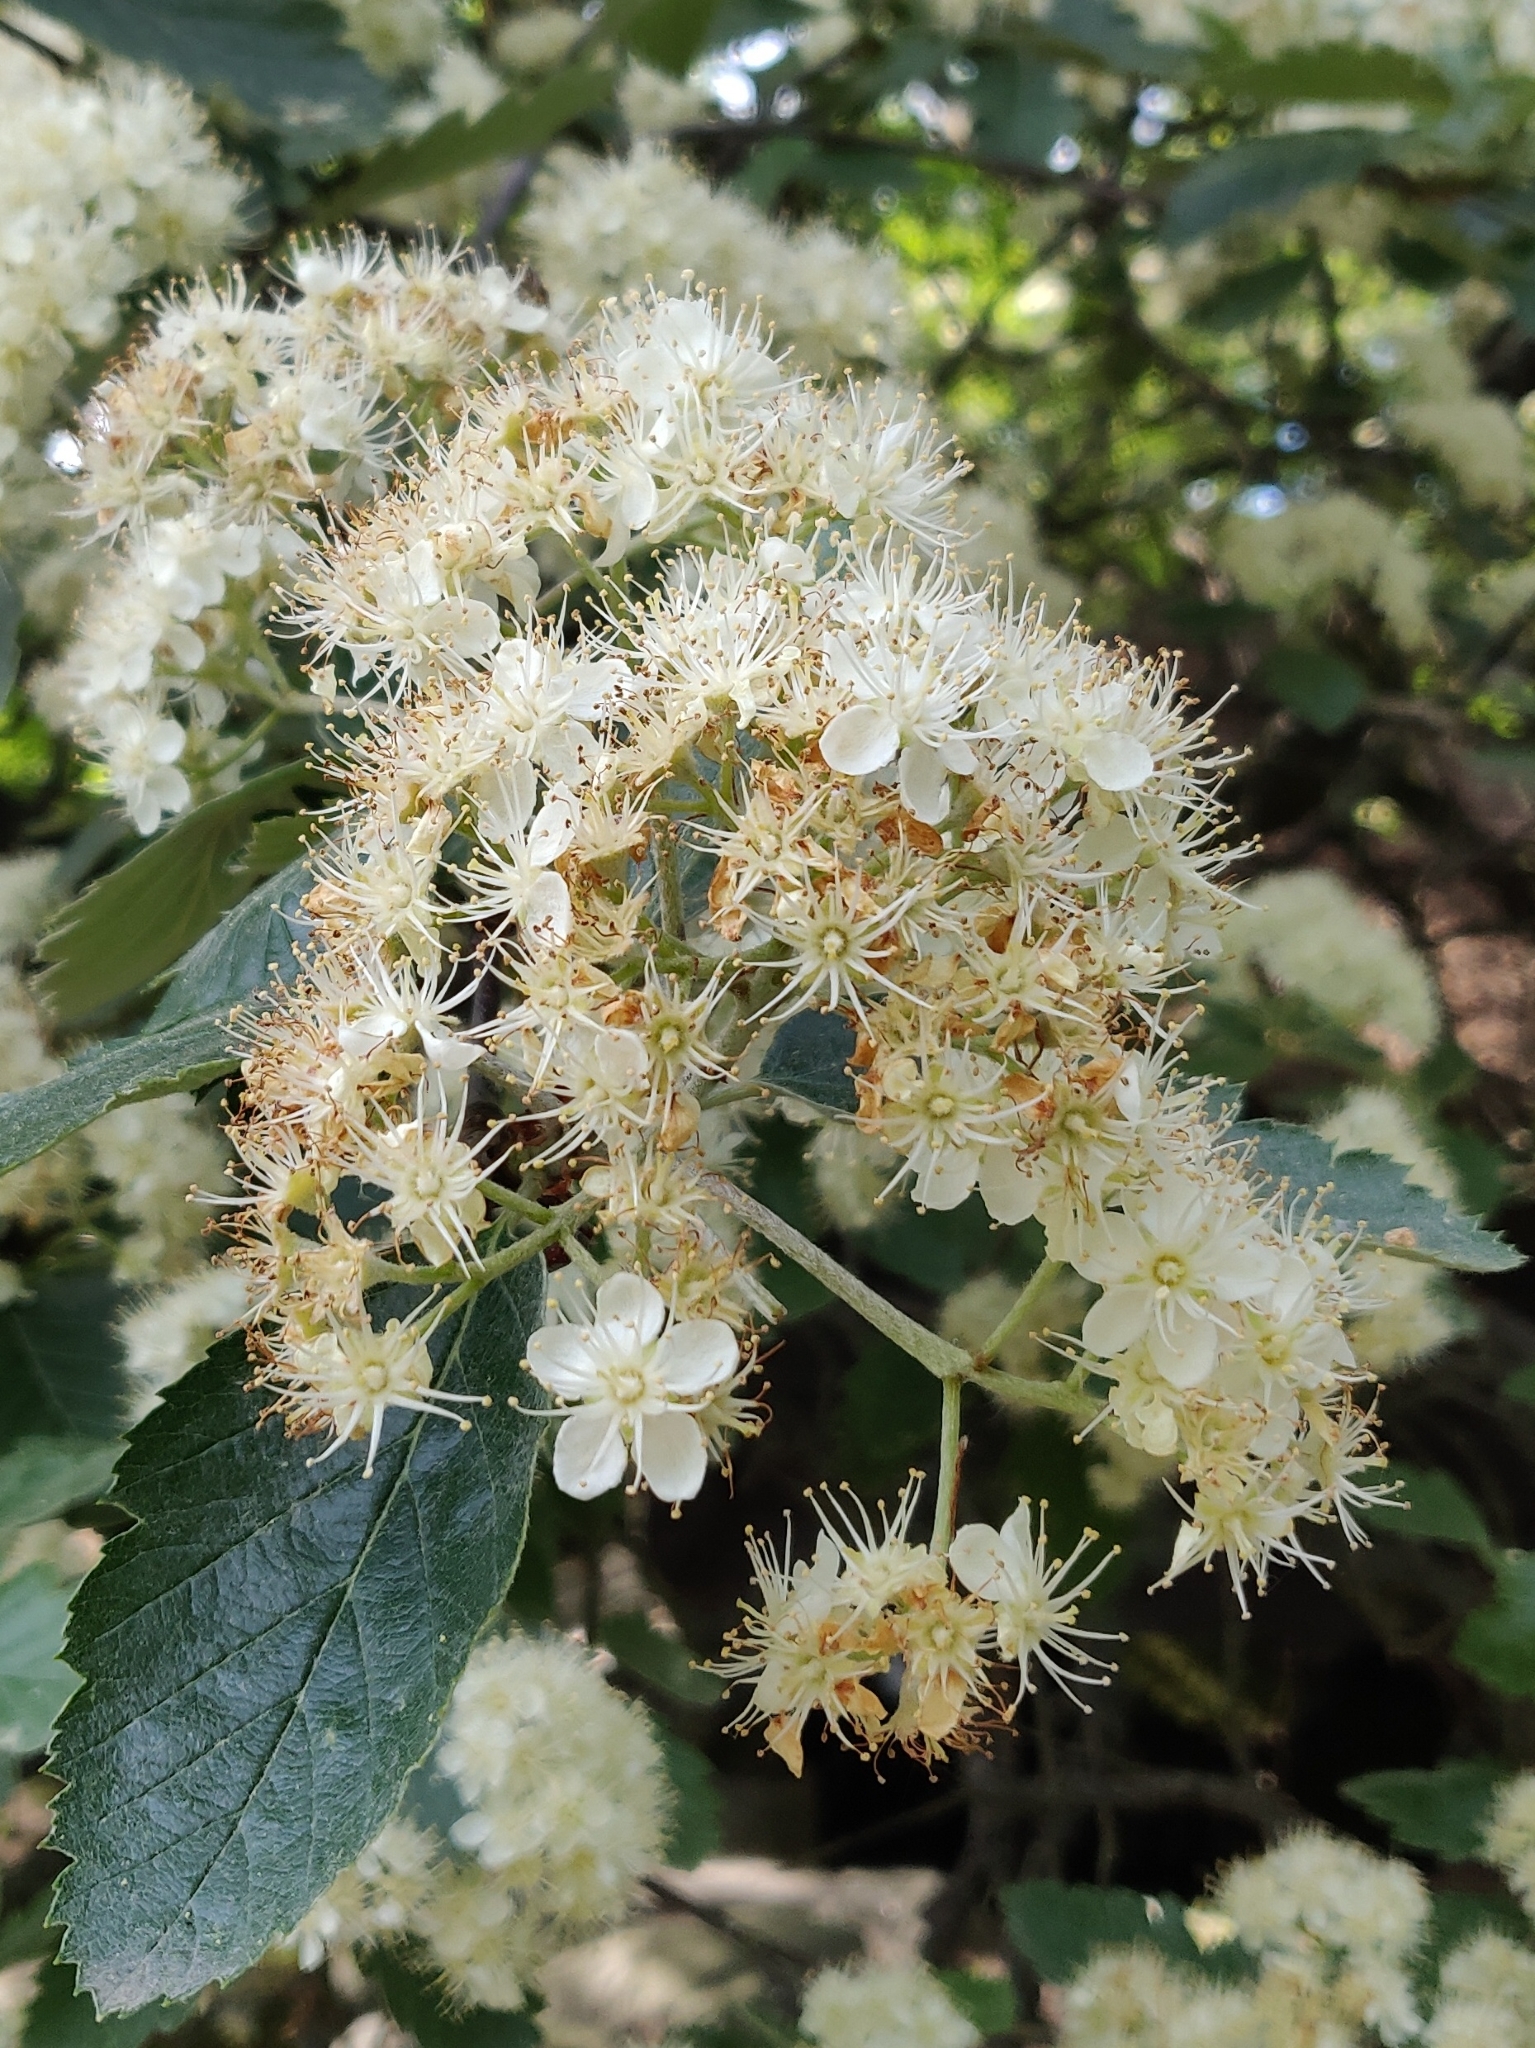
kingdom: Plantae
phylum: Tracheophyta
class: Magnoliopsida
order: Rosales
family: Rosaceae
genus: Scandosorbus
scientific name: Scandosorbus intermedia
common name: Swedish whitebeam
